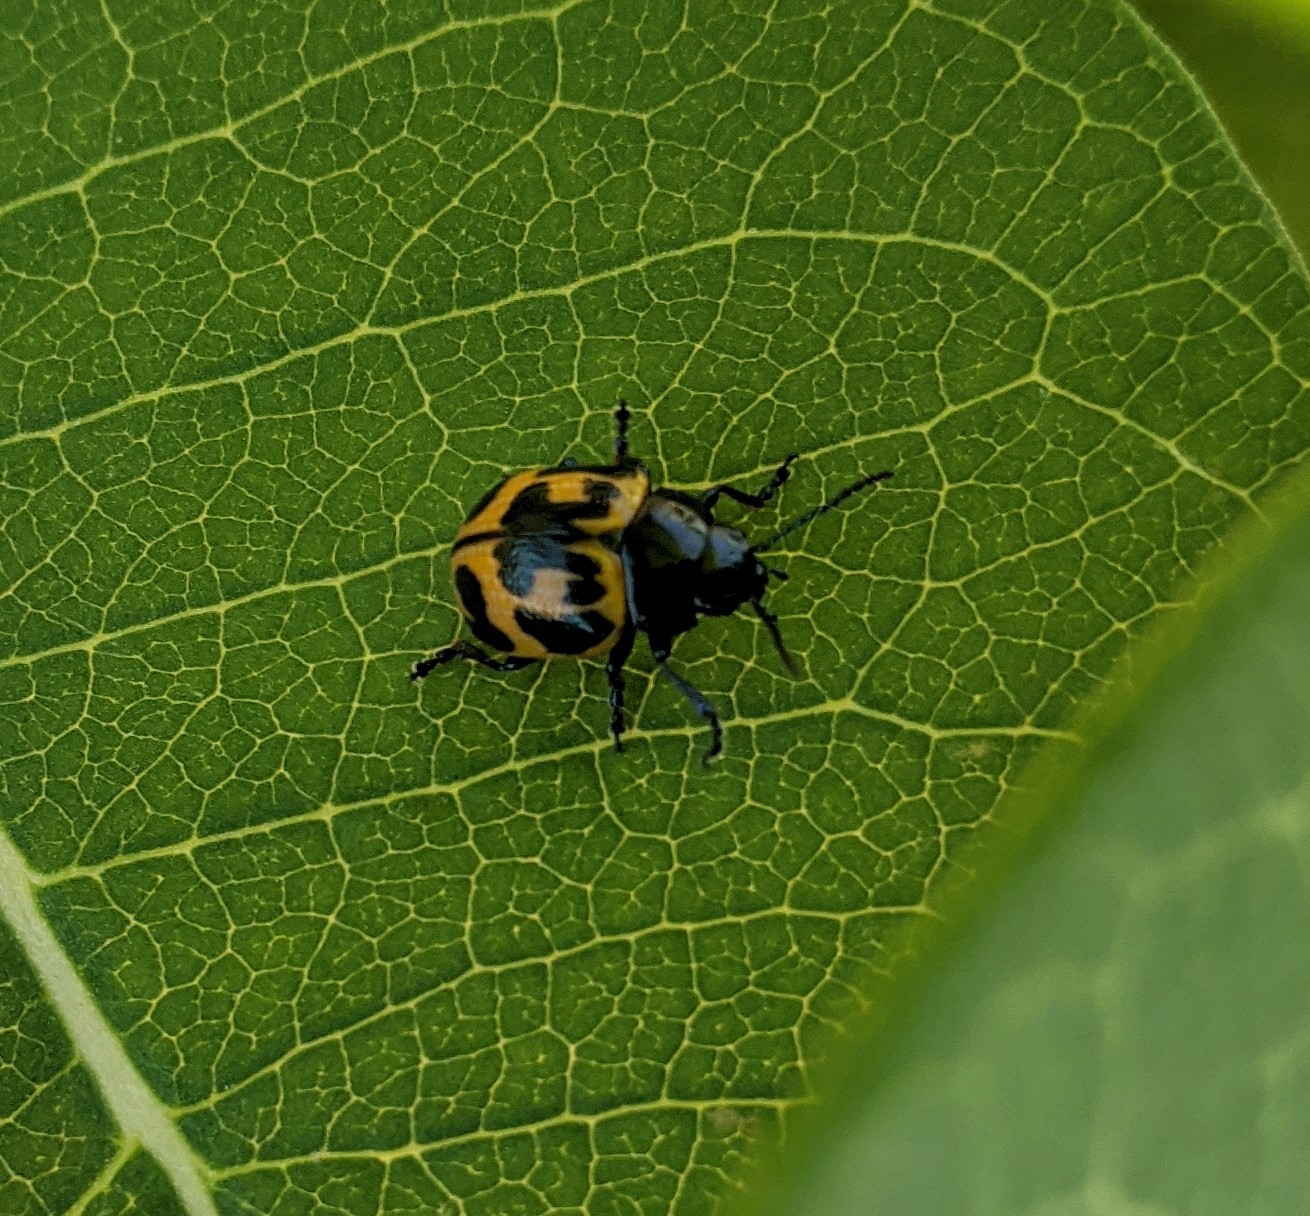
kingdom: Animalia
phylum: Arthropoda
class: Insecta
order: Coleoptera
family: Chrysomelidae
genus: Labidomera
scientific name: Labidomera clivicollis
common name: Swamp milkweed leaf beetle
